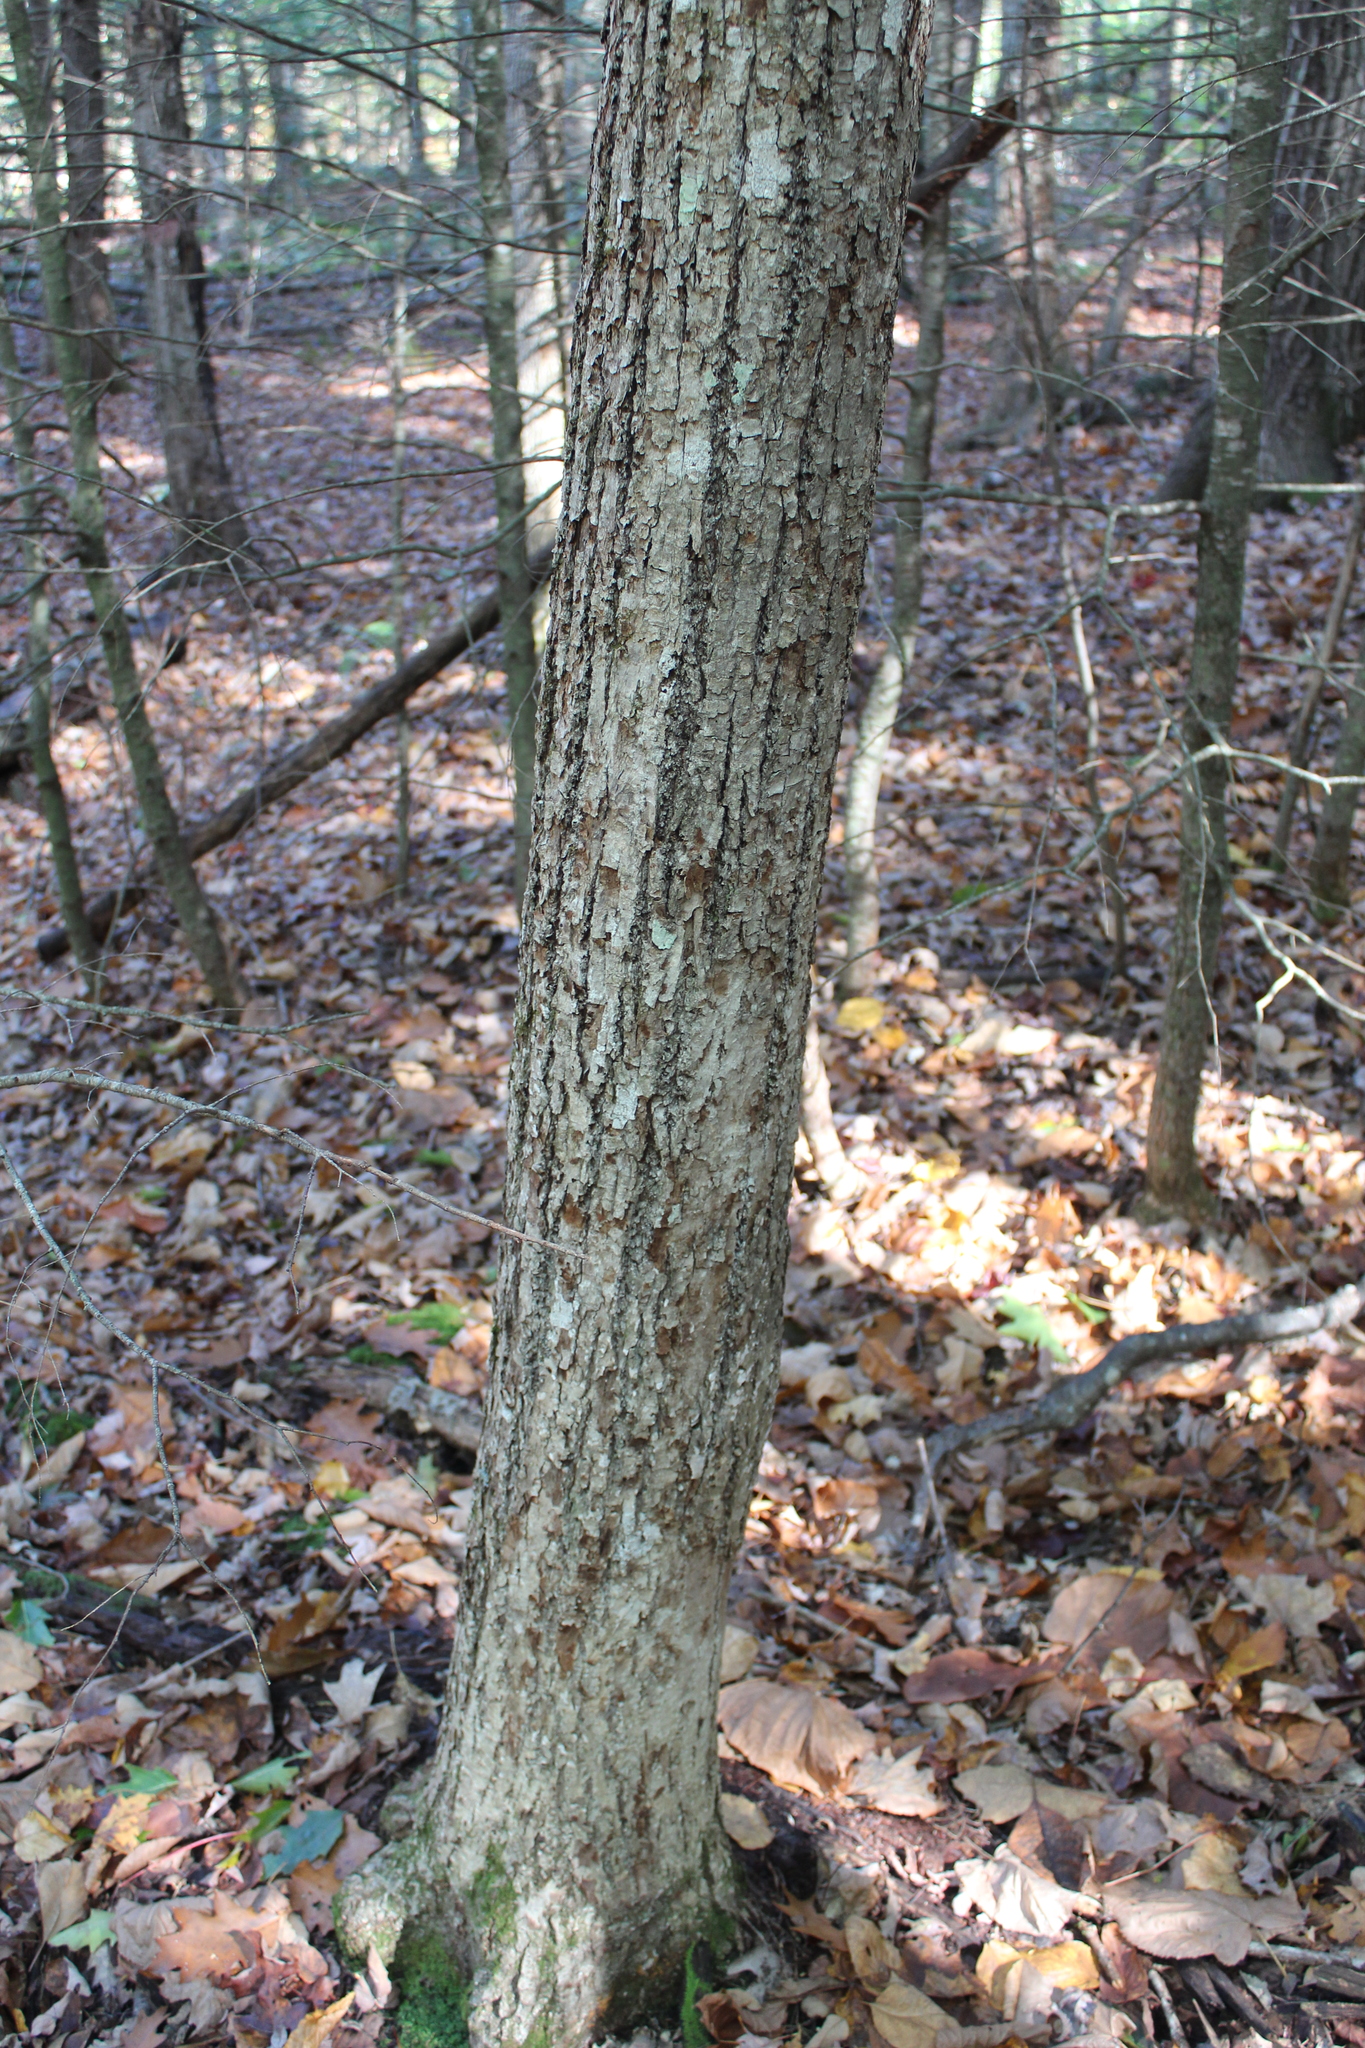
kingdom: Plantae
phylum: Tracheophyta
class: Magnoliopsida
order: Malvales
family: Malvaceae
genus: Tilia
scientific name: Tilia americana
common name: Basswood
